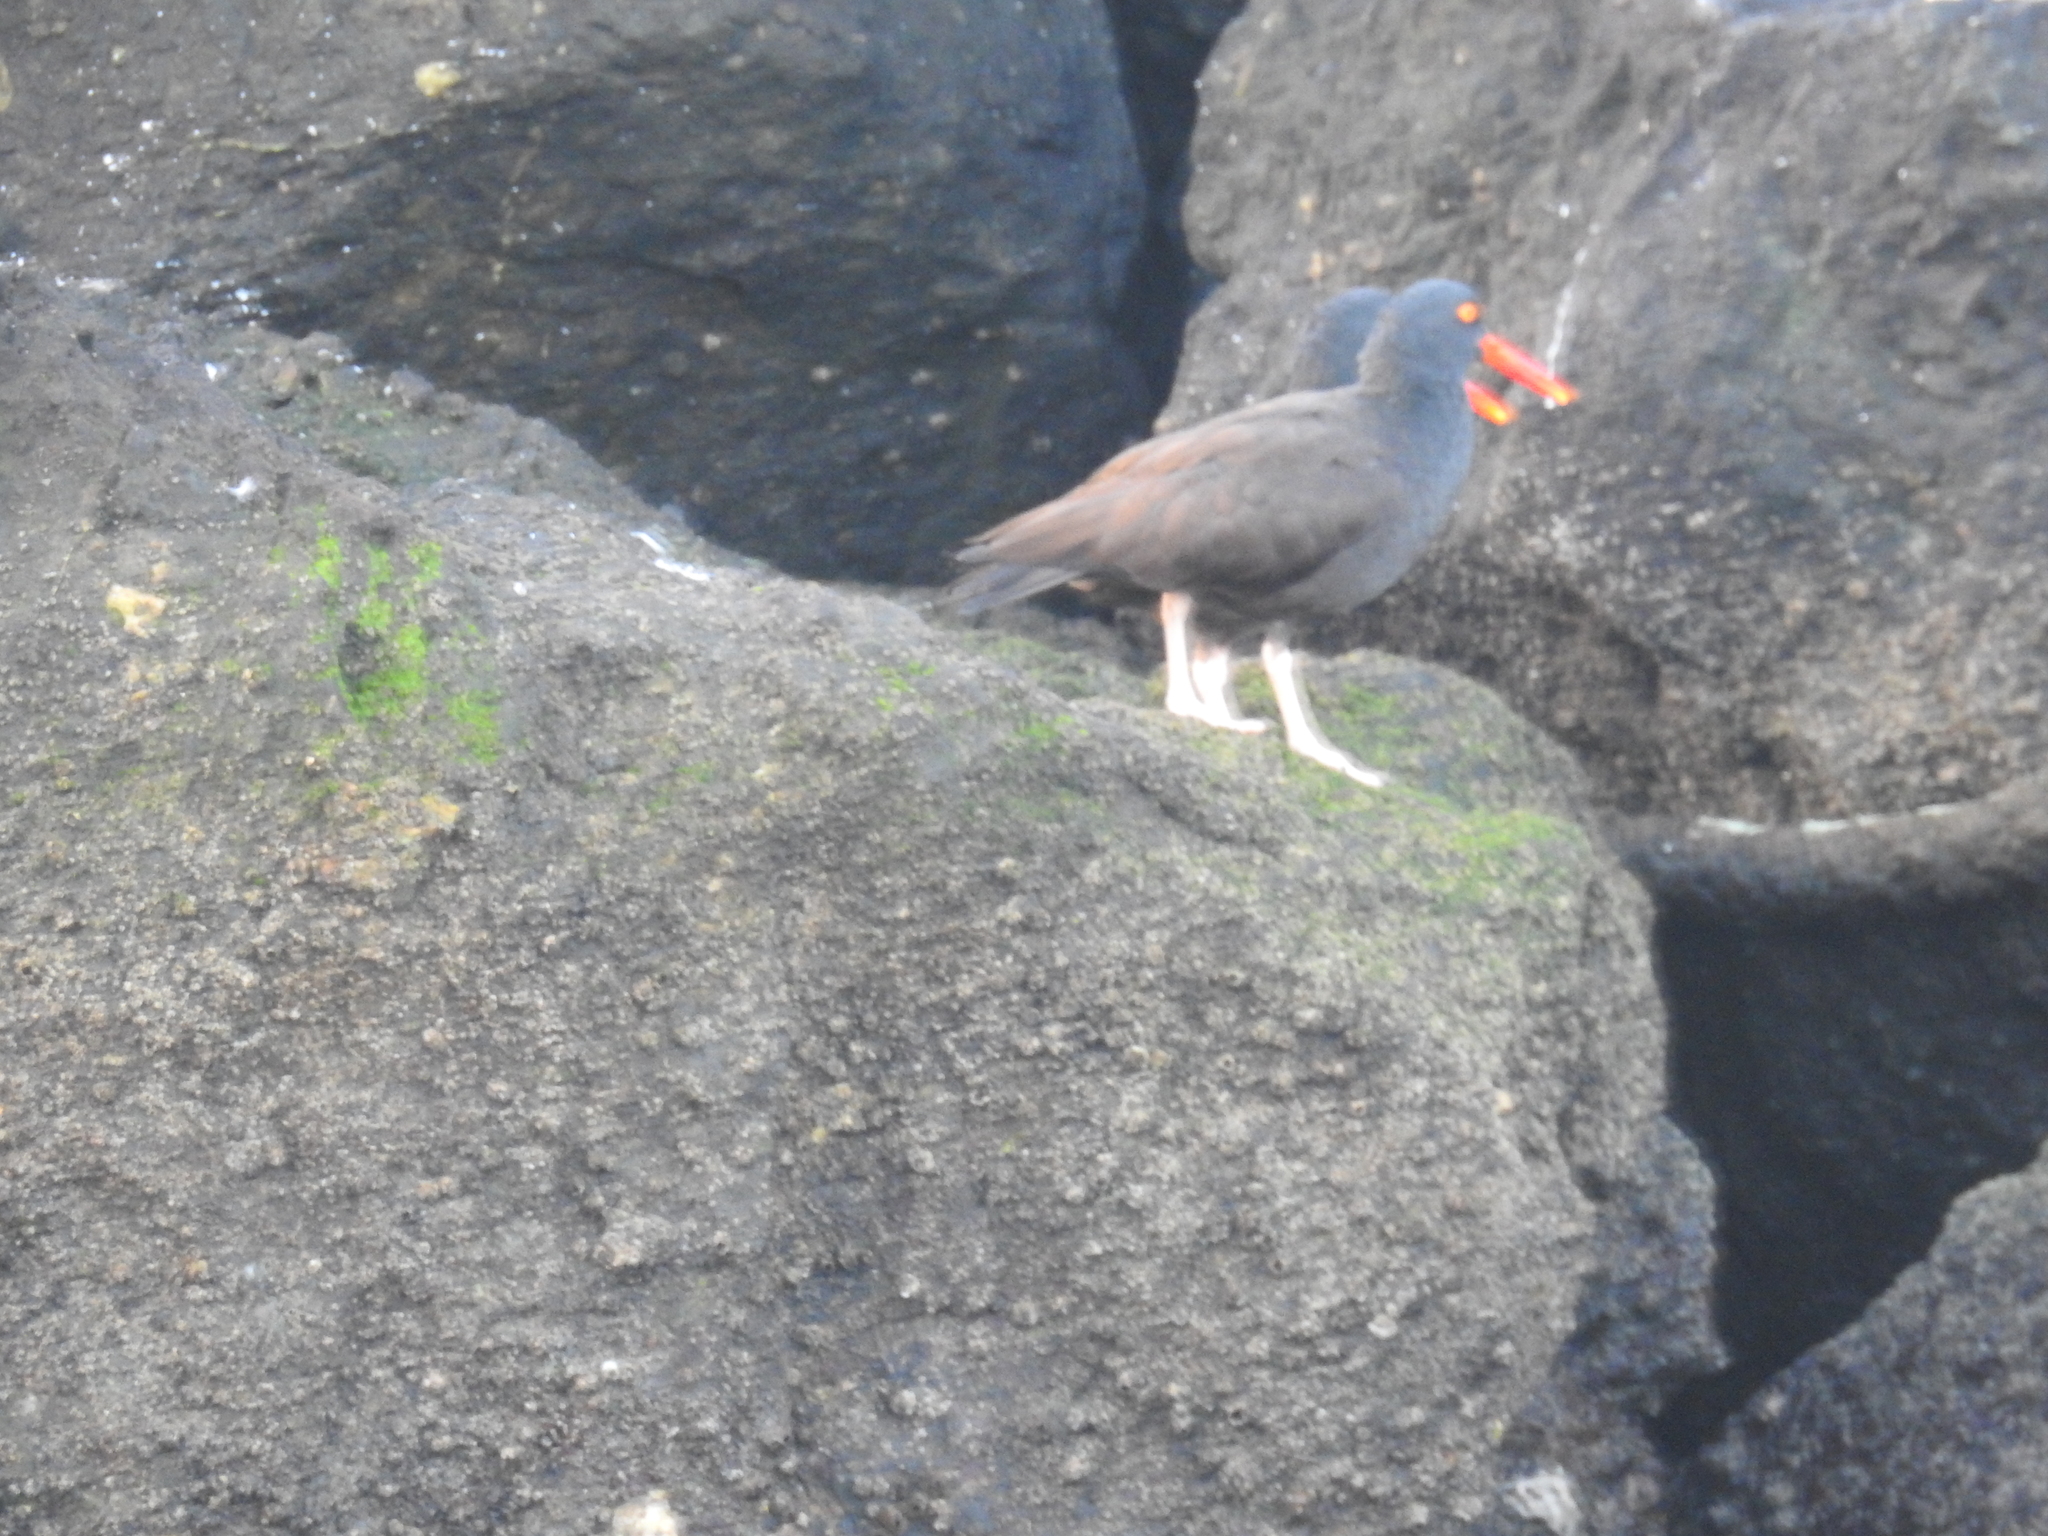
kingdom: Animalia
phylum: Chordata
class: Aves
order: Charadriiformes
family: Haematopodidae
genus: Haematopus
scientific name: Haematopus bachmani
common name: Black oystercatcher
